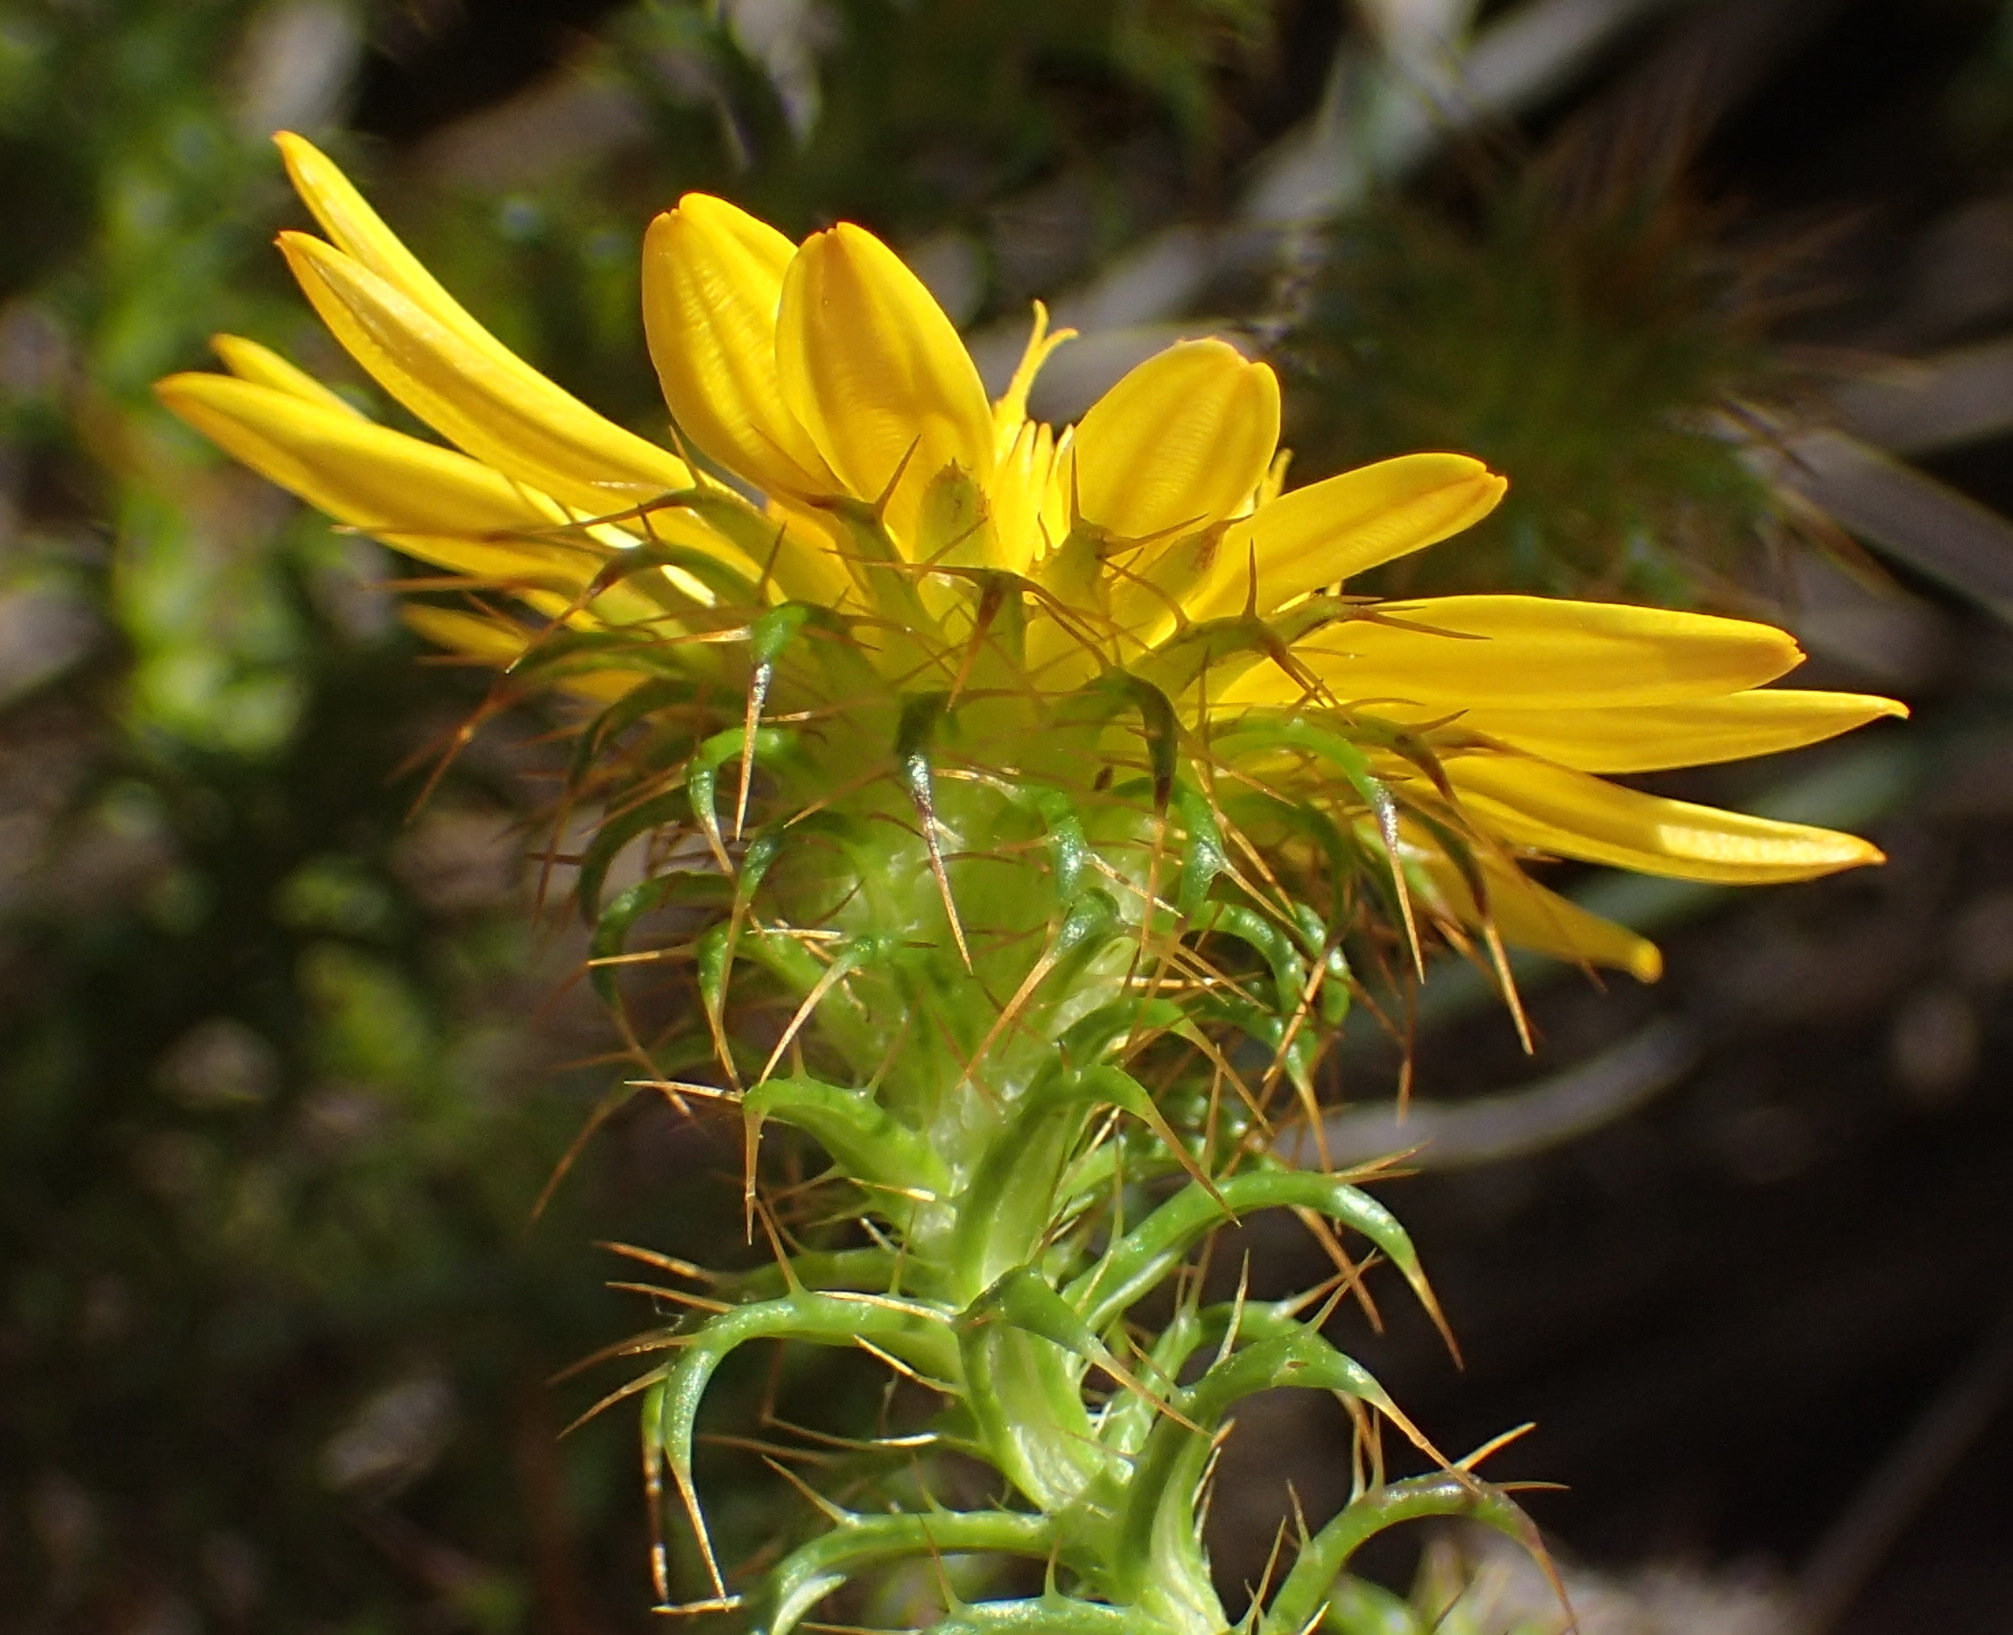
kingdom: Plantae
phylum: Tracheophyta
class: Magnoliopsida
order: Asterales
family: Asteraceae
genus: Cullumia
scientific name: Cullumia decurrens
